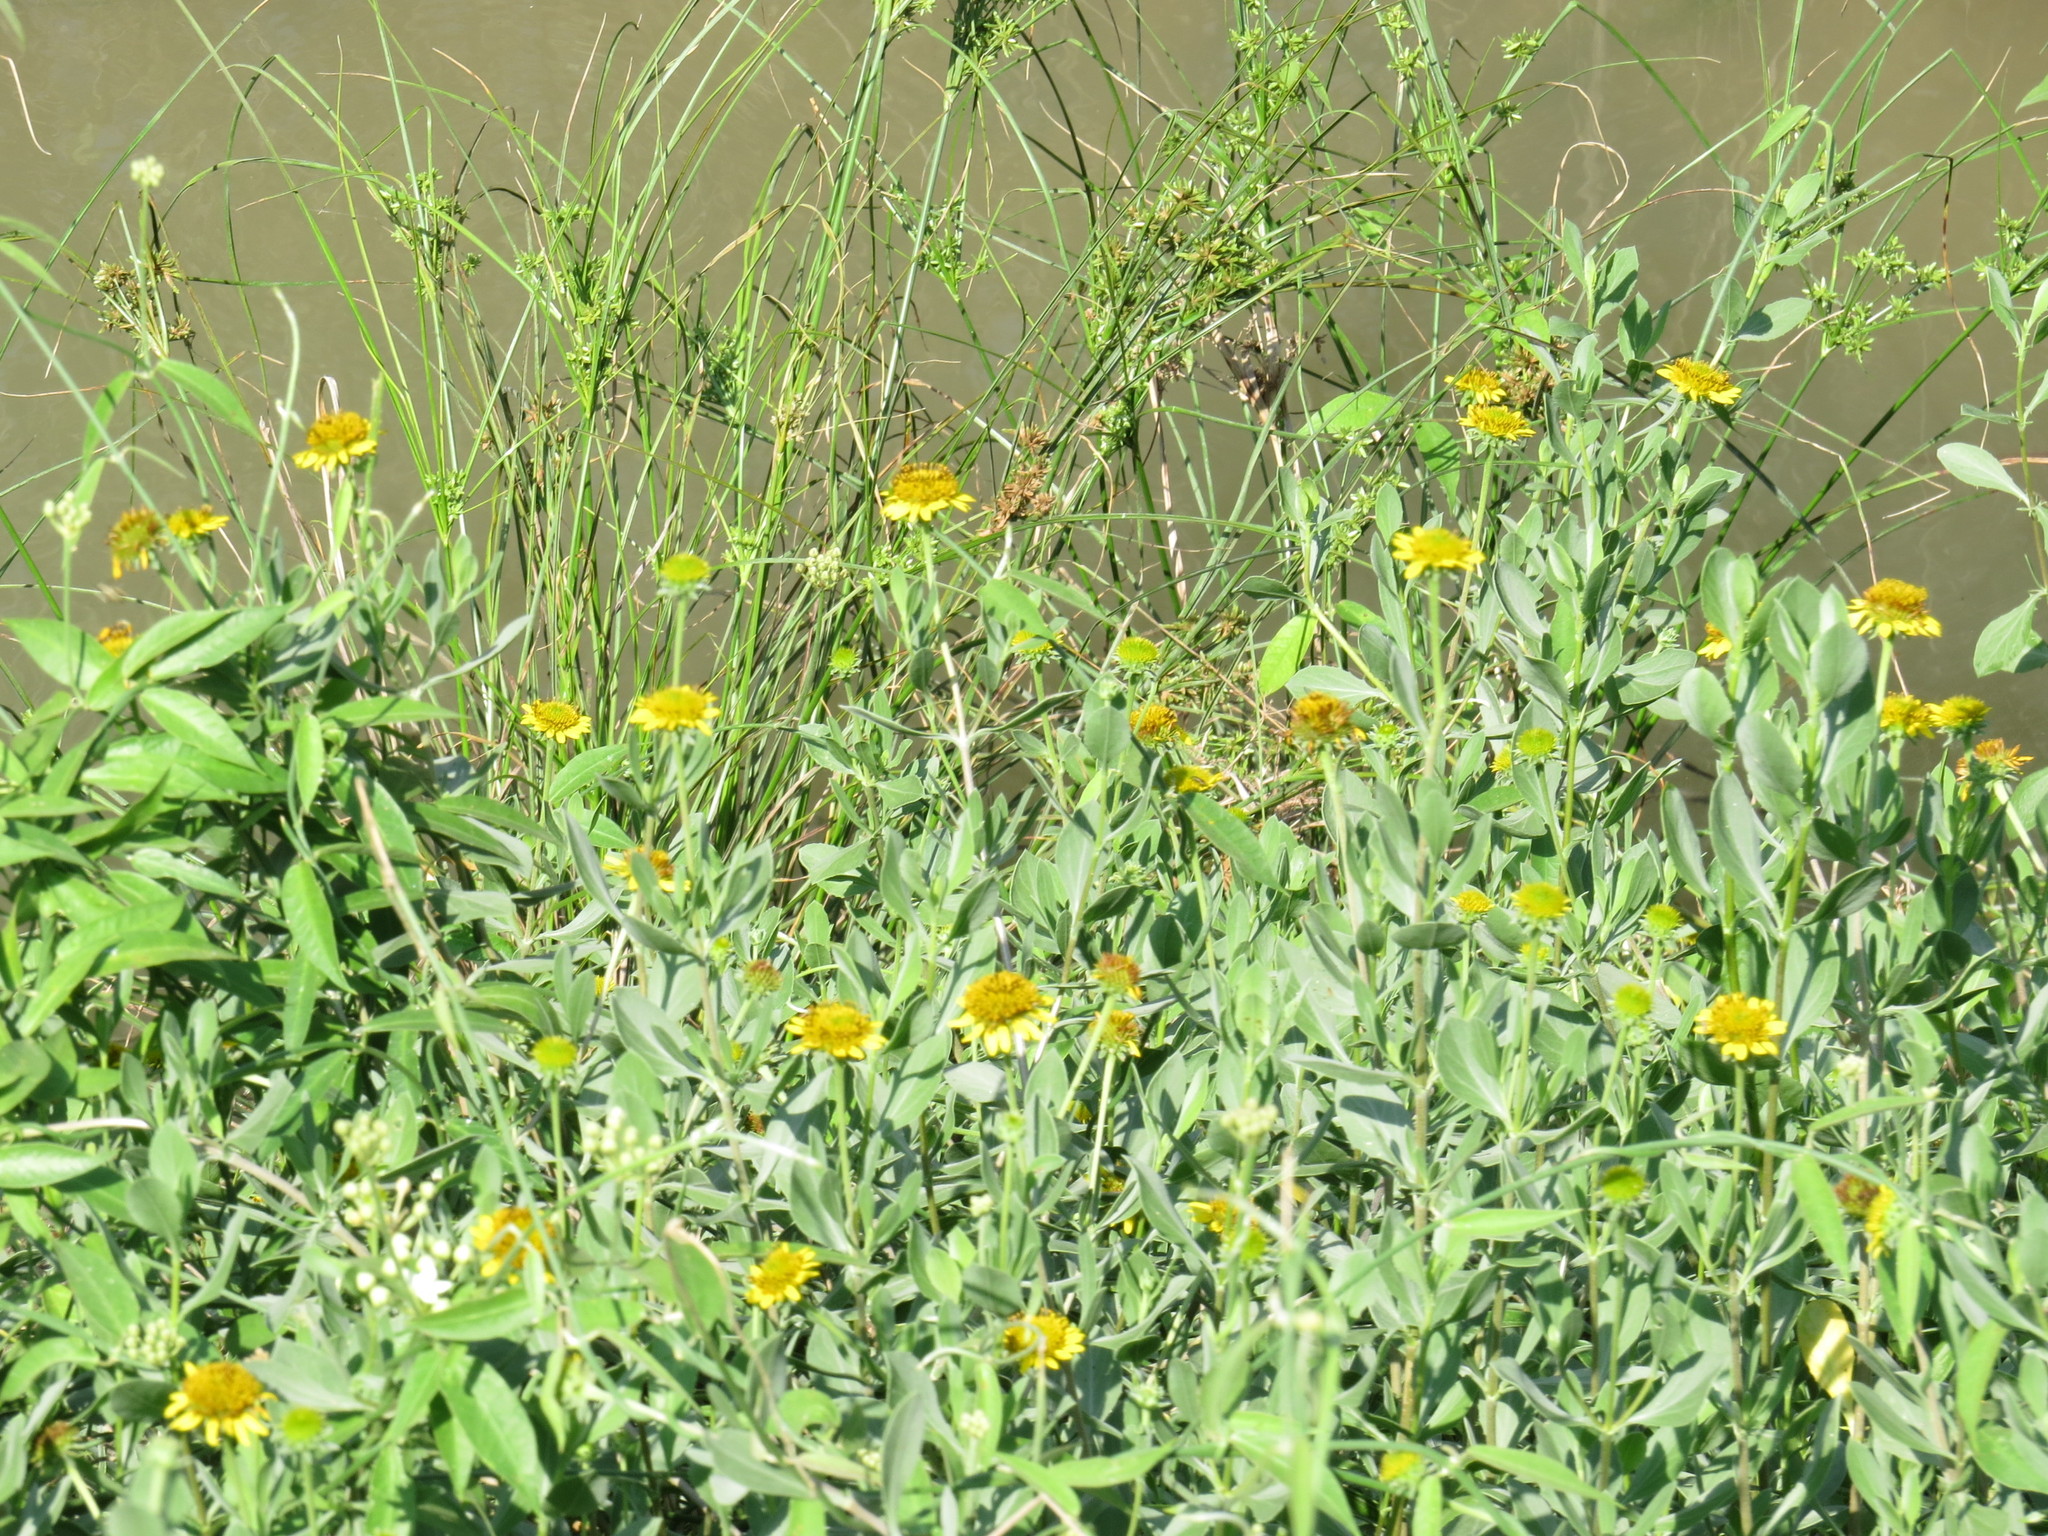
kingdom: Plantae
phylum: Tracheophyta
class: Magnoliopsida
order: Asterales
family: Asteraceae
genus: Borrichia
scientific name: Borrichia frutescens
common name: Sea oxeye
